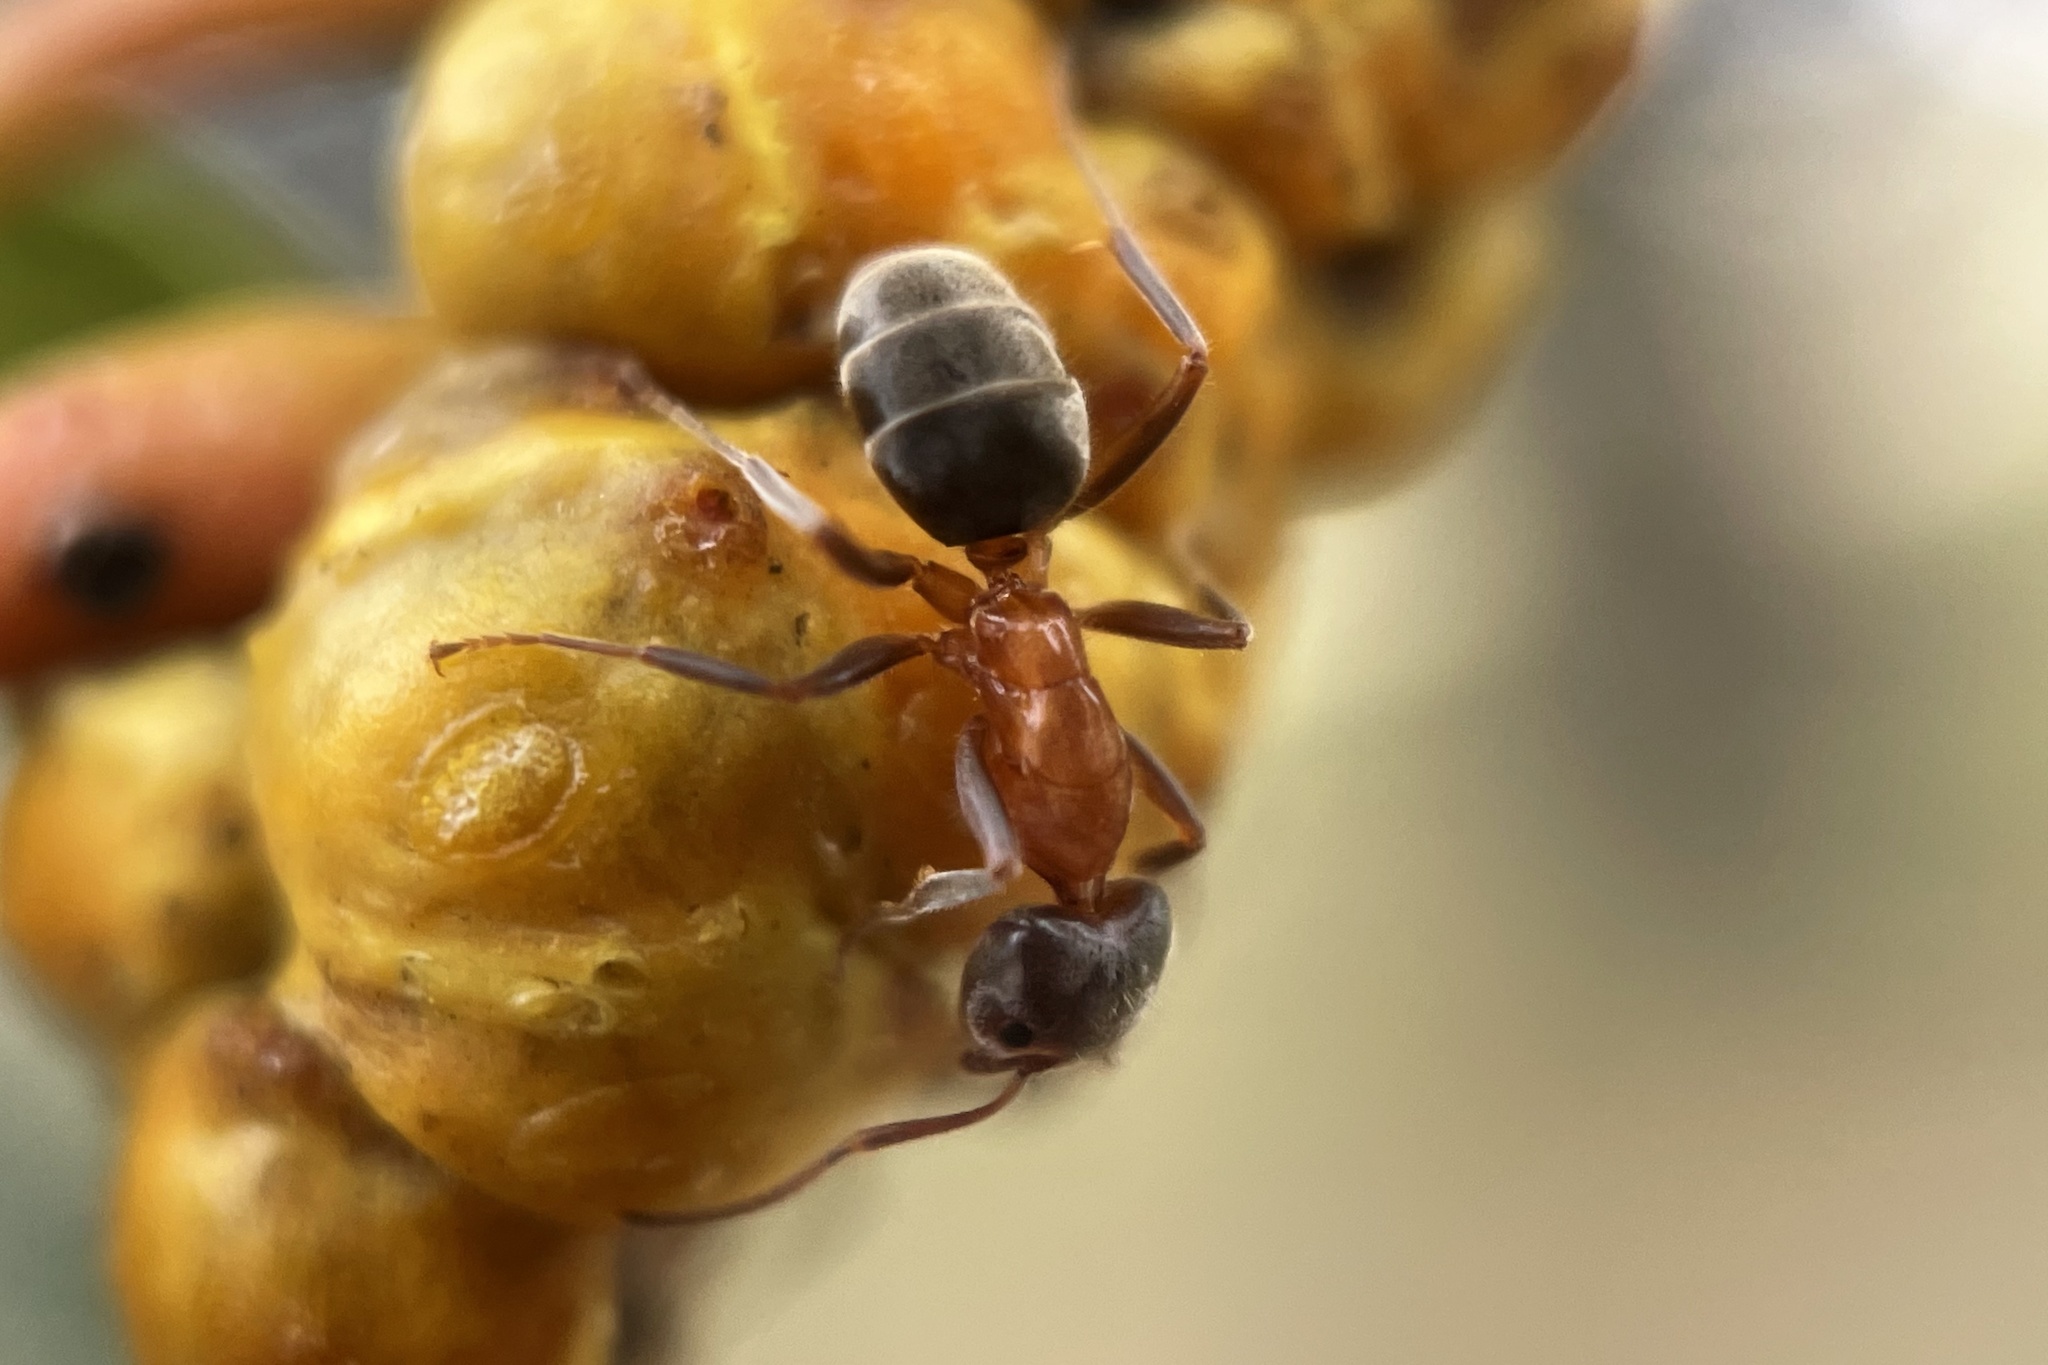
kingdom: Animalia
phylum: Arthropoda
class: Insecta
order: Hymenoptera
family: Formicidae
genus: Liometopum
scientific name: Liometopum occidentale
